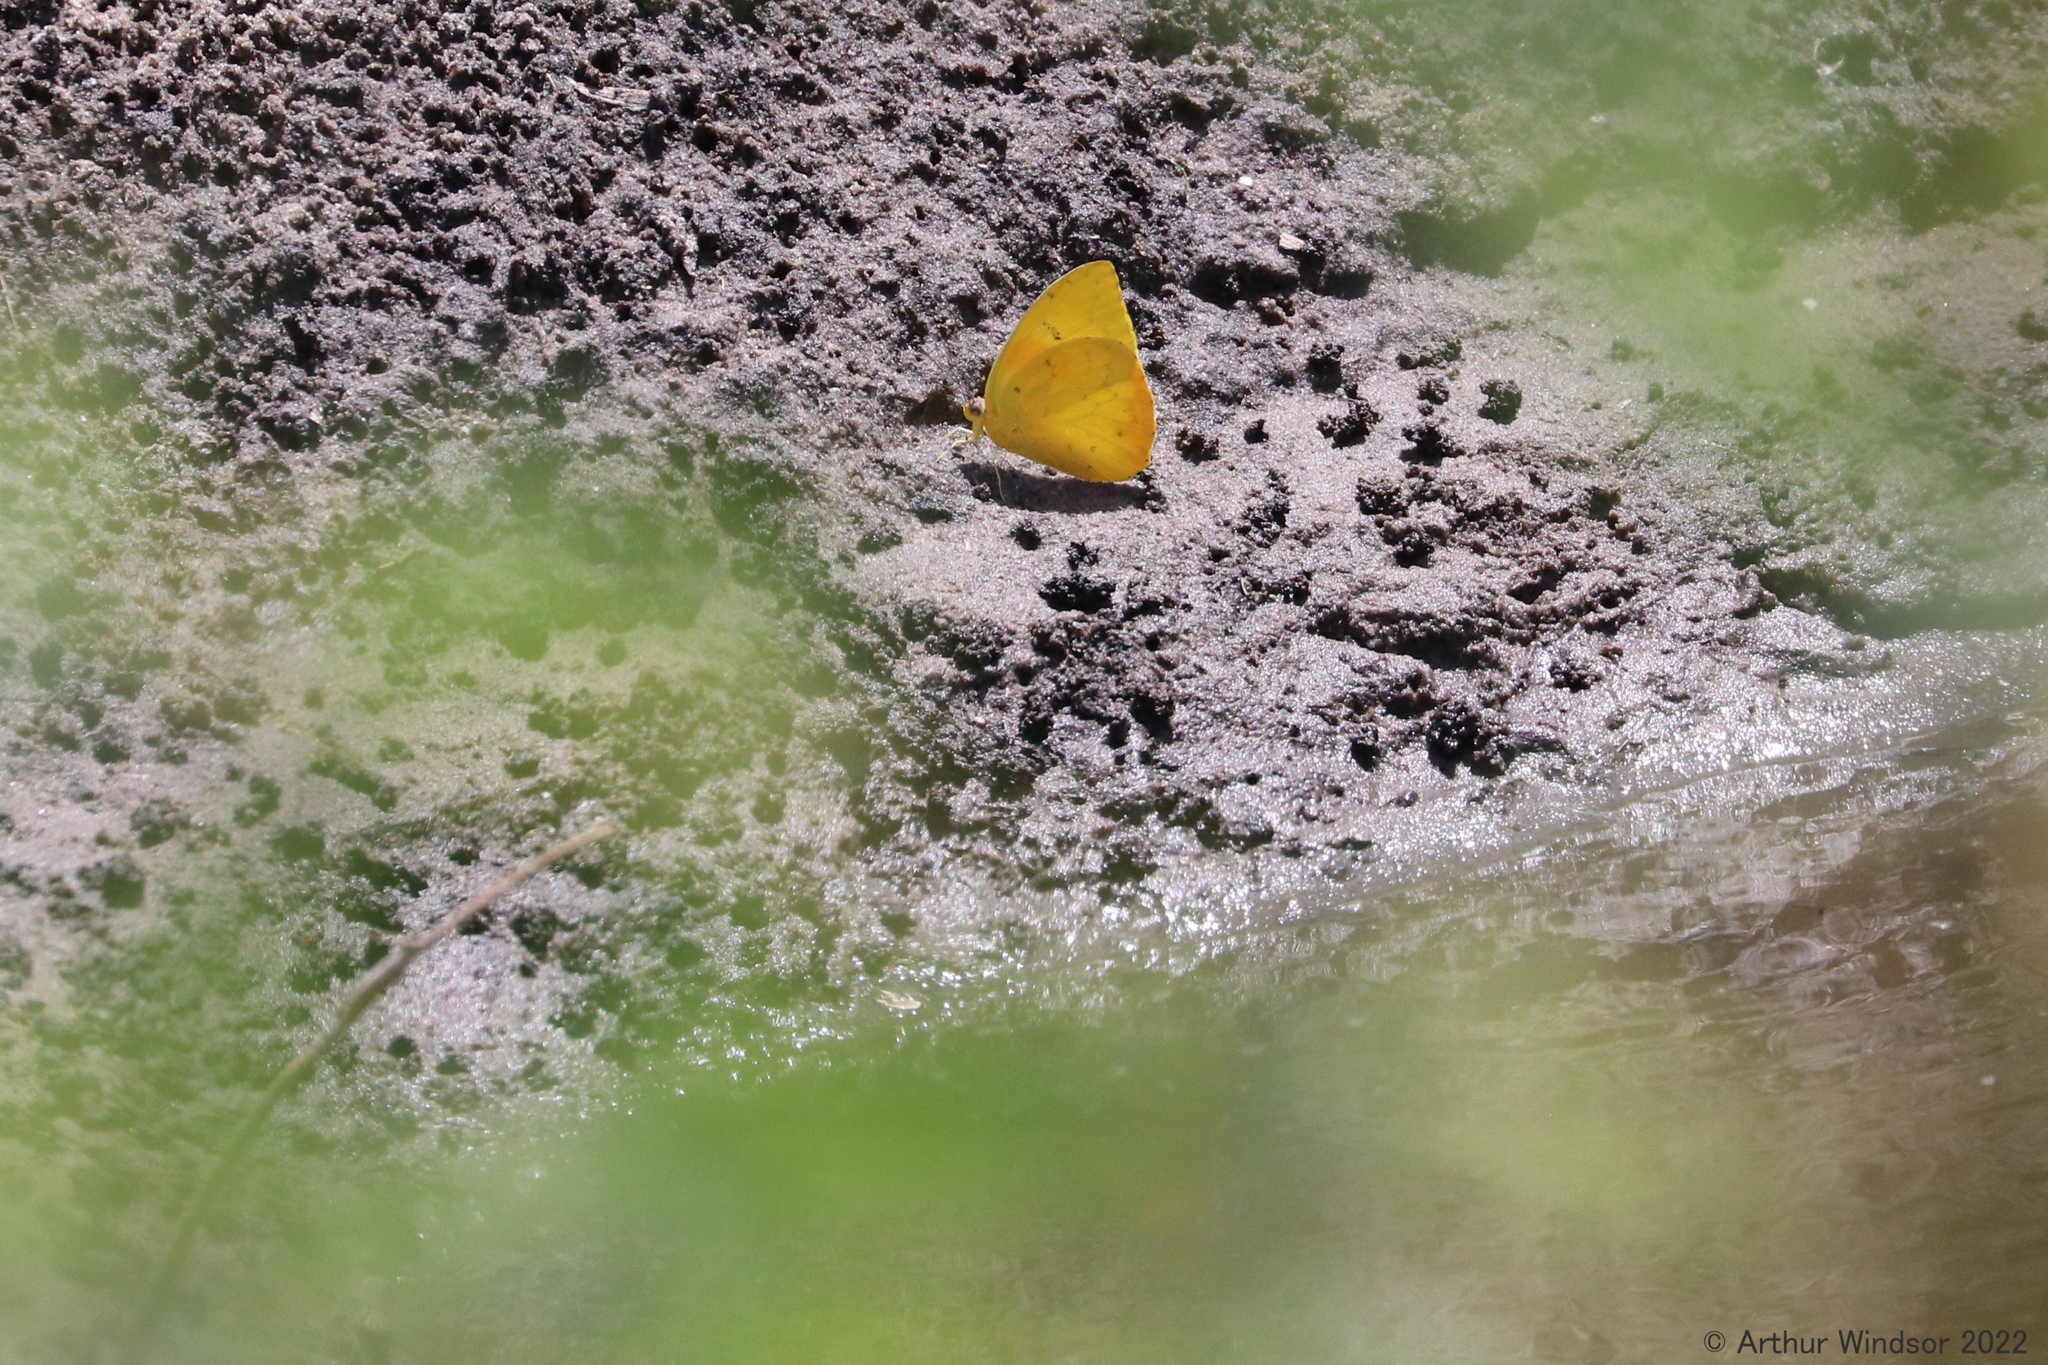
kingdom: Animalia
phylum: Arthropoda
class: Insecta
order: Lepidoptera
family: Pieridae
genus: Phoebis
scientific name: Phoebis philea
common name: Orange-barred giant sulphur
